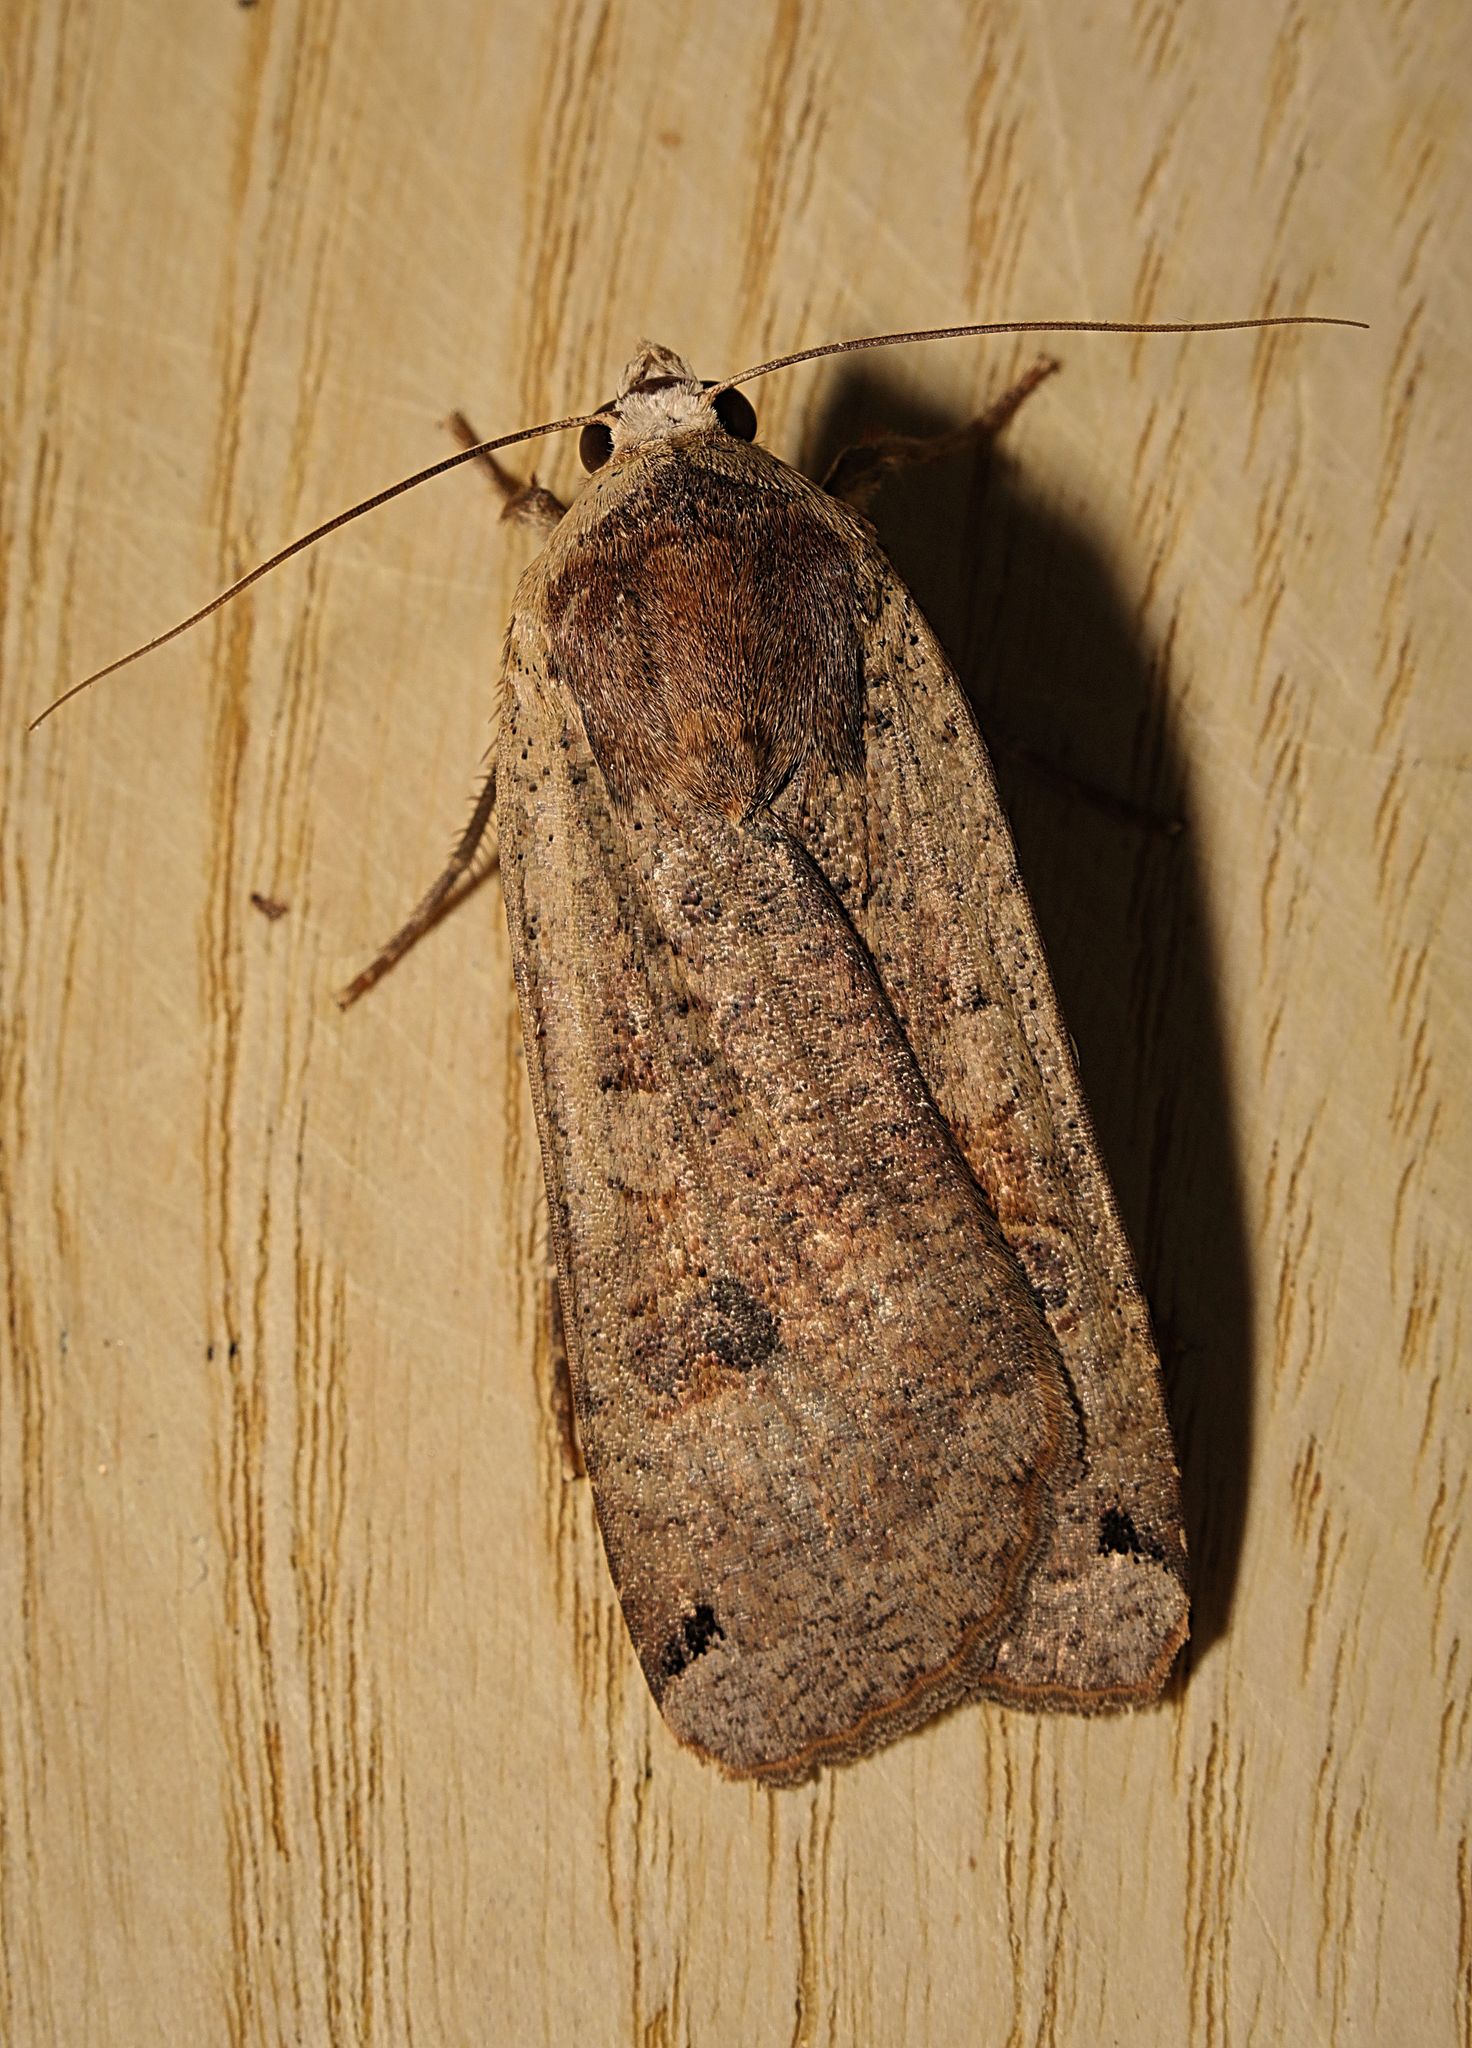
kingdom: Animalia
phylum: Arthropoda
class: Insecta
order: Lepidoptera
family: Noctuidae
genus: Noctua
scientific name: Noctua pronuba
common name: Large yellow underwing
